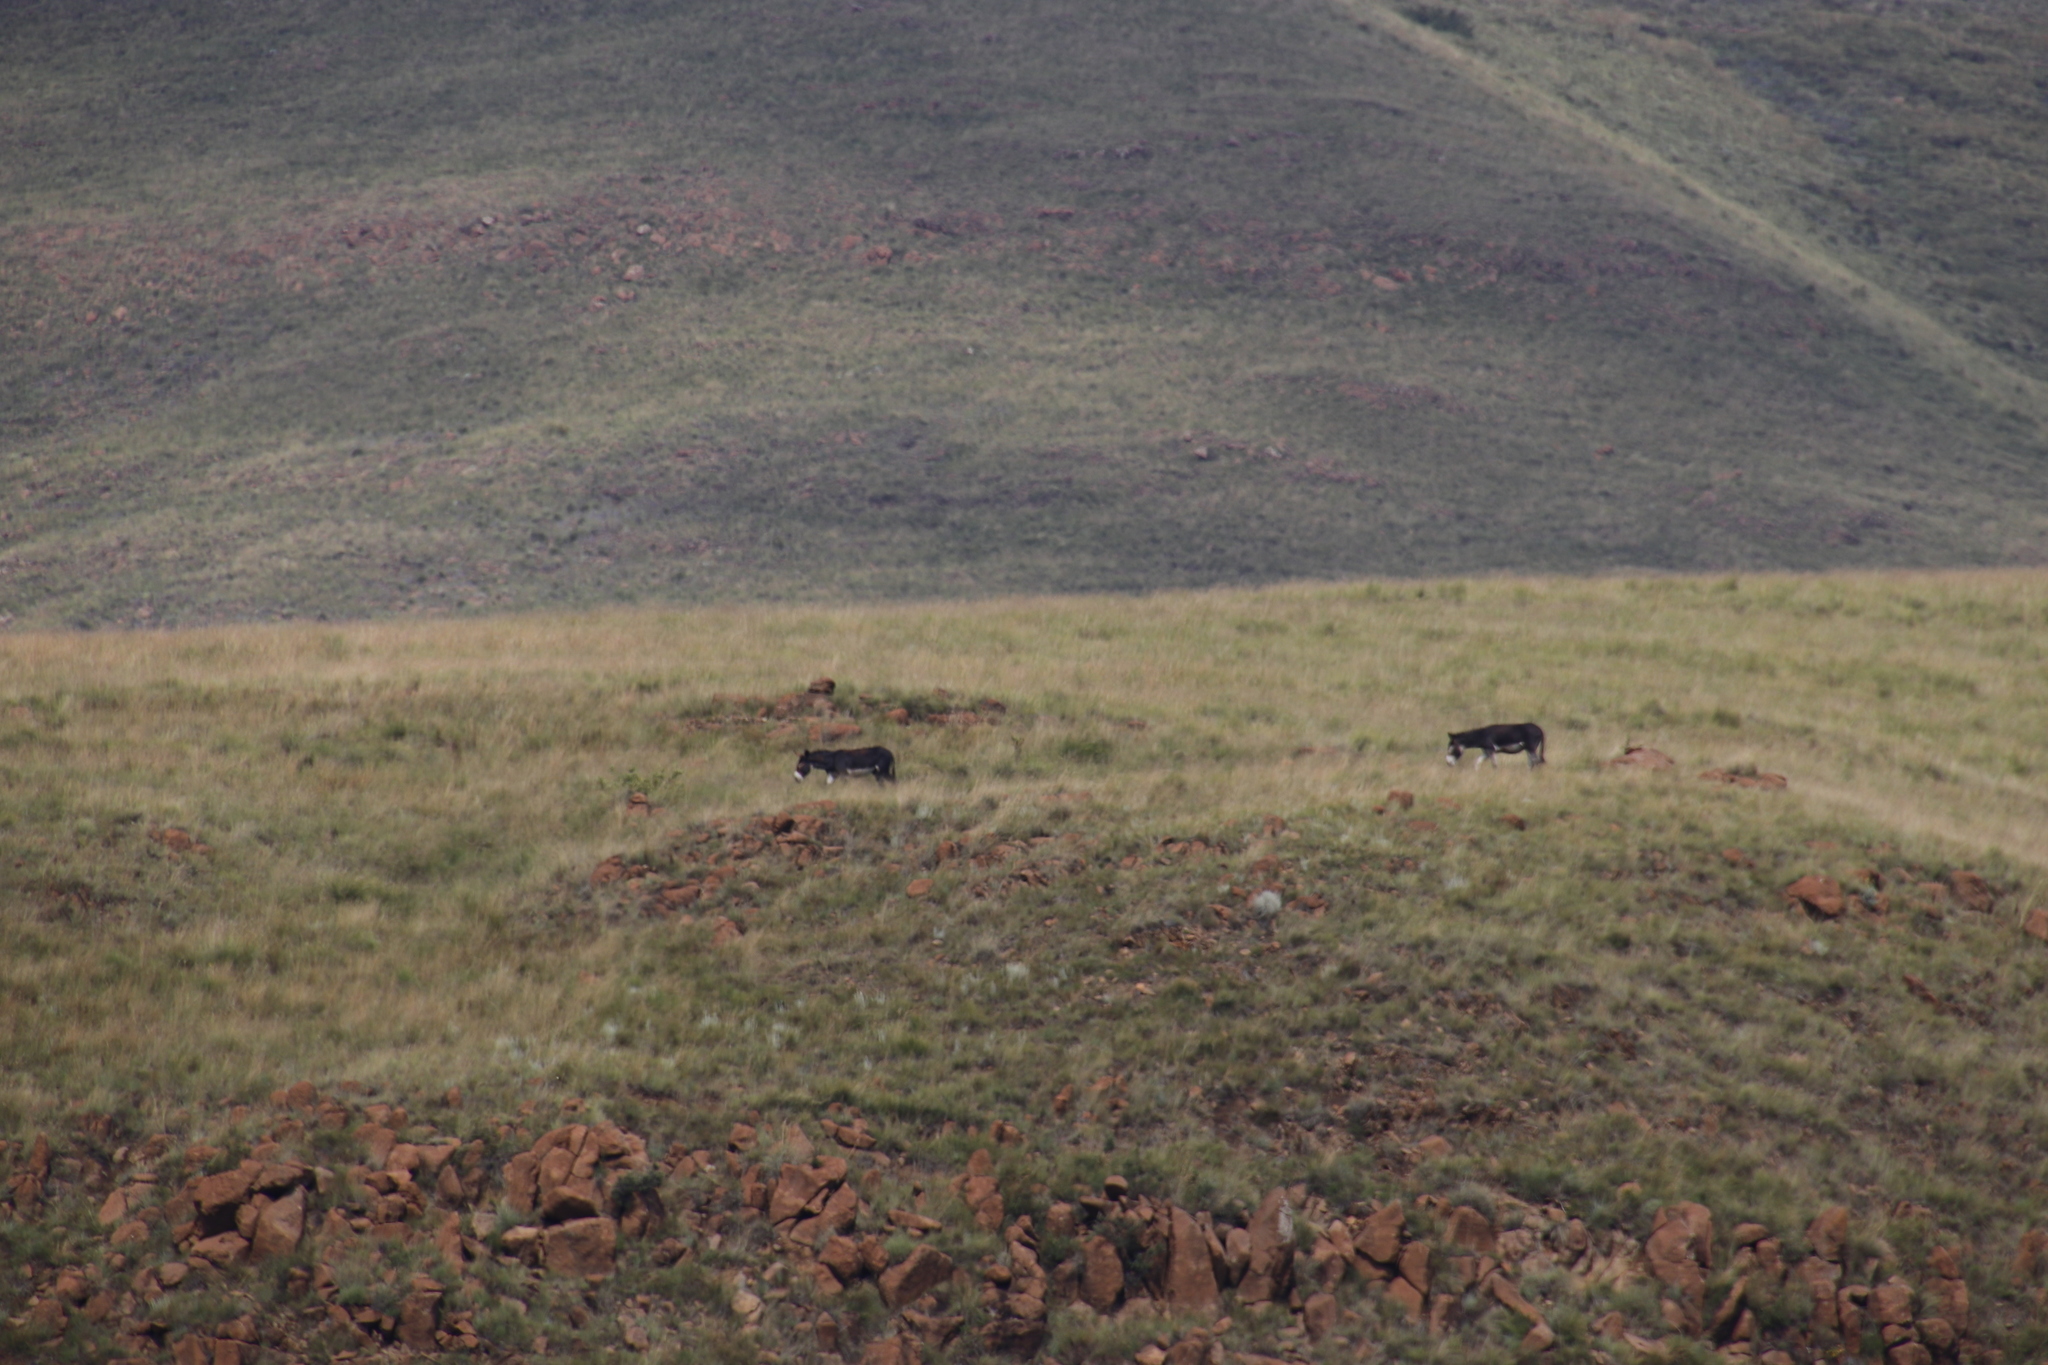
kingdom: Animalia
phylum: Chordata
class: Mammalia
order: Perissodactyla
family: Equidae
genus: Equus
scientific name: Equus asinus
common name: Ass
